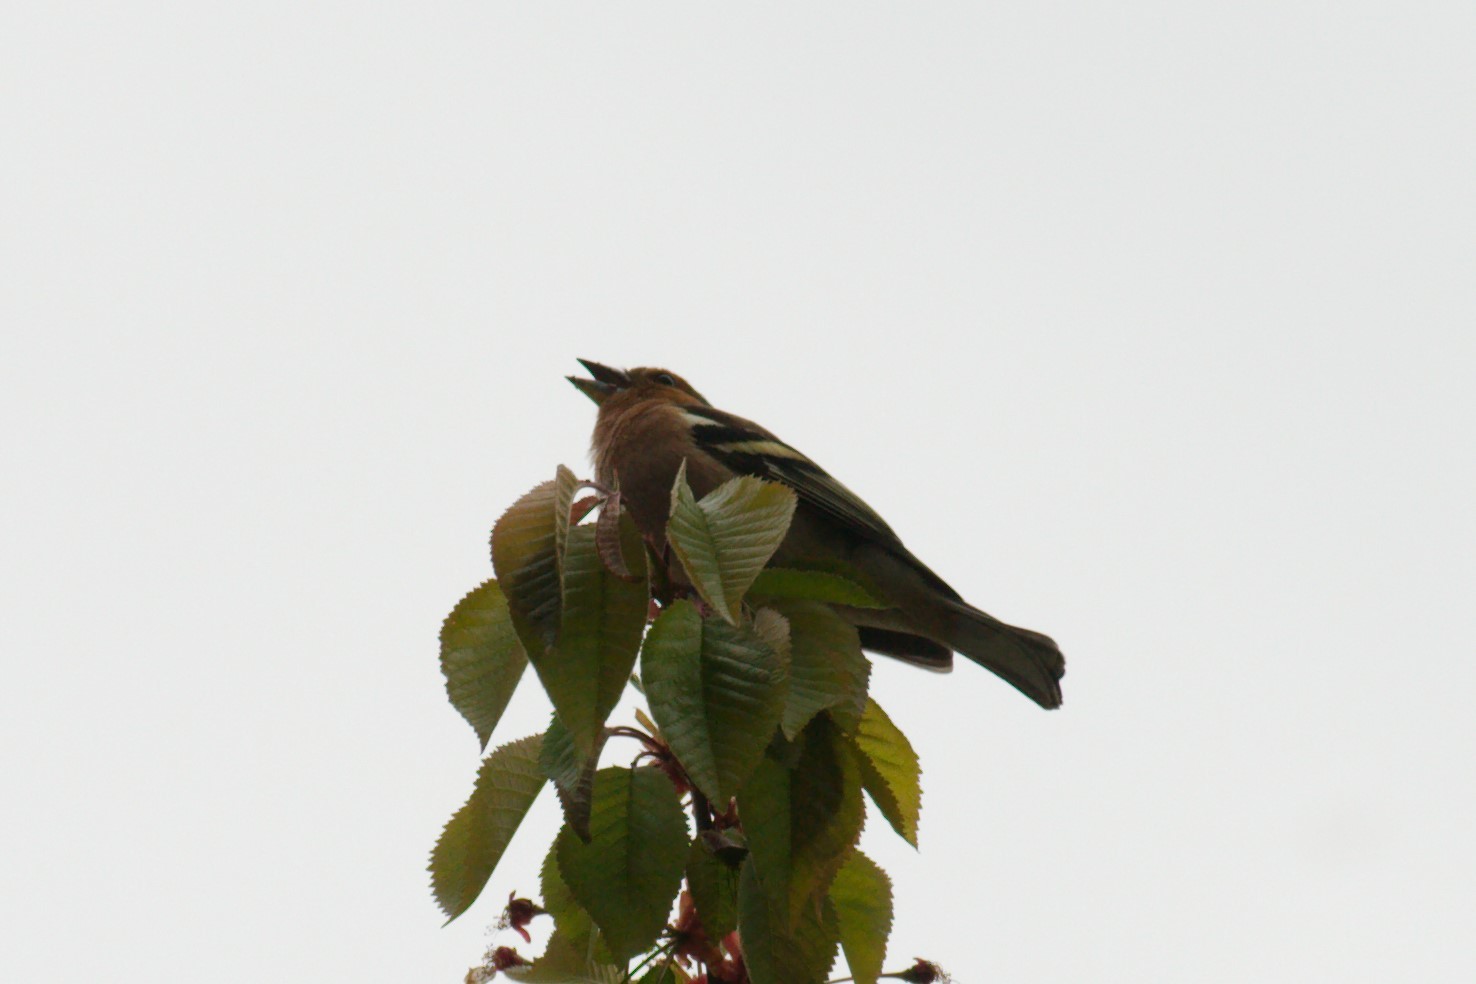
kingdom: Animalia
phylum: Chordata
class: Aves
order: Passeriformes
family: Fringillidae
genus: Fringilla
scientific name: Fringilla coelebs
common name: Common chaffinch
